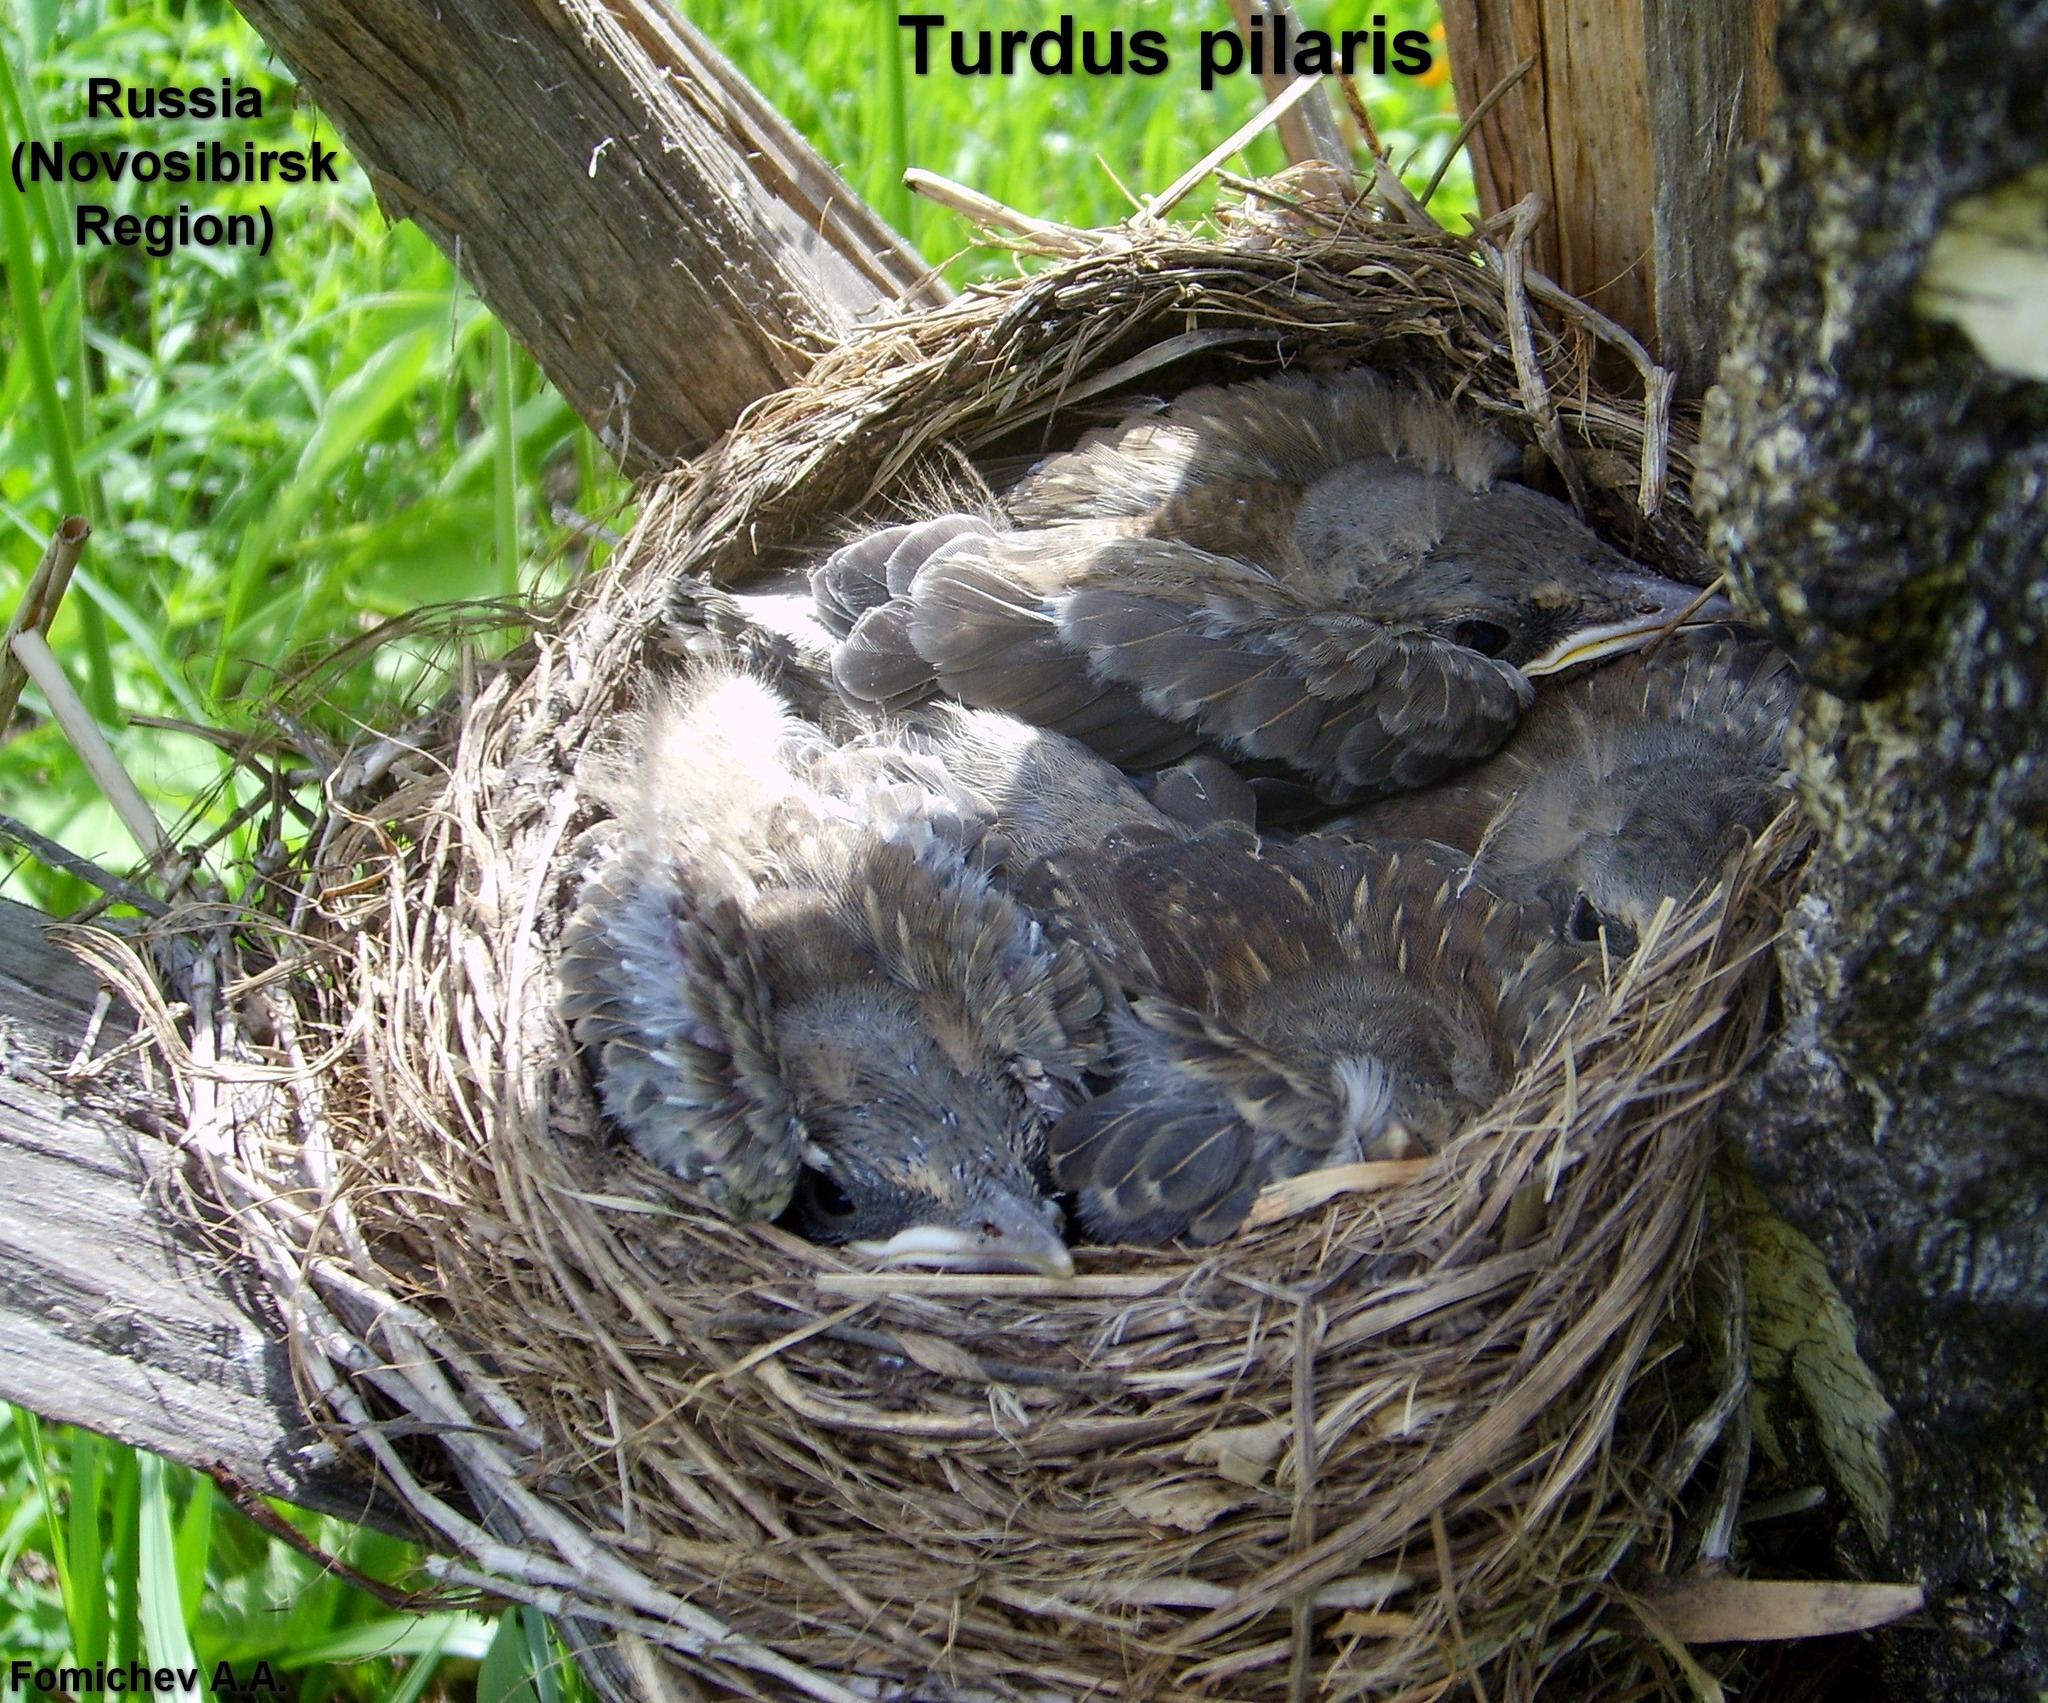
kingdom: Animalia
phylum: Chordata
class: Aves
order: Passeriformes
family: Turdidae
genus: Turdus
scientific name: Turdus pilaris
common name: Fieldfare
